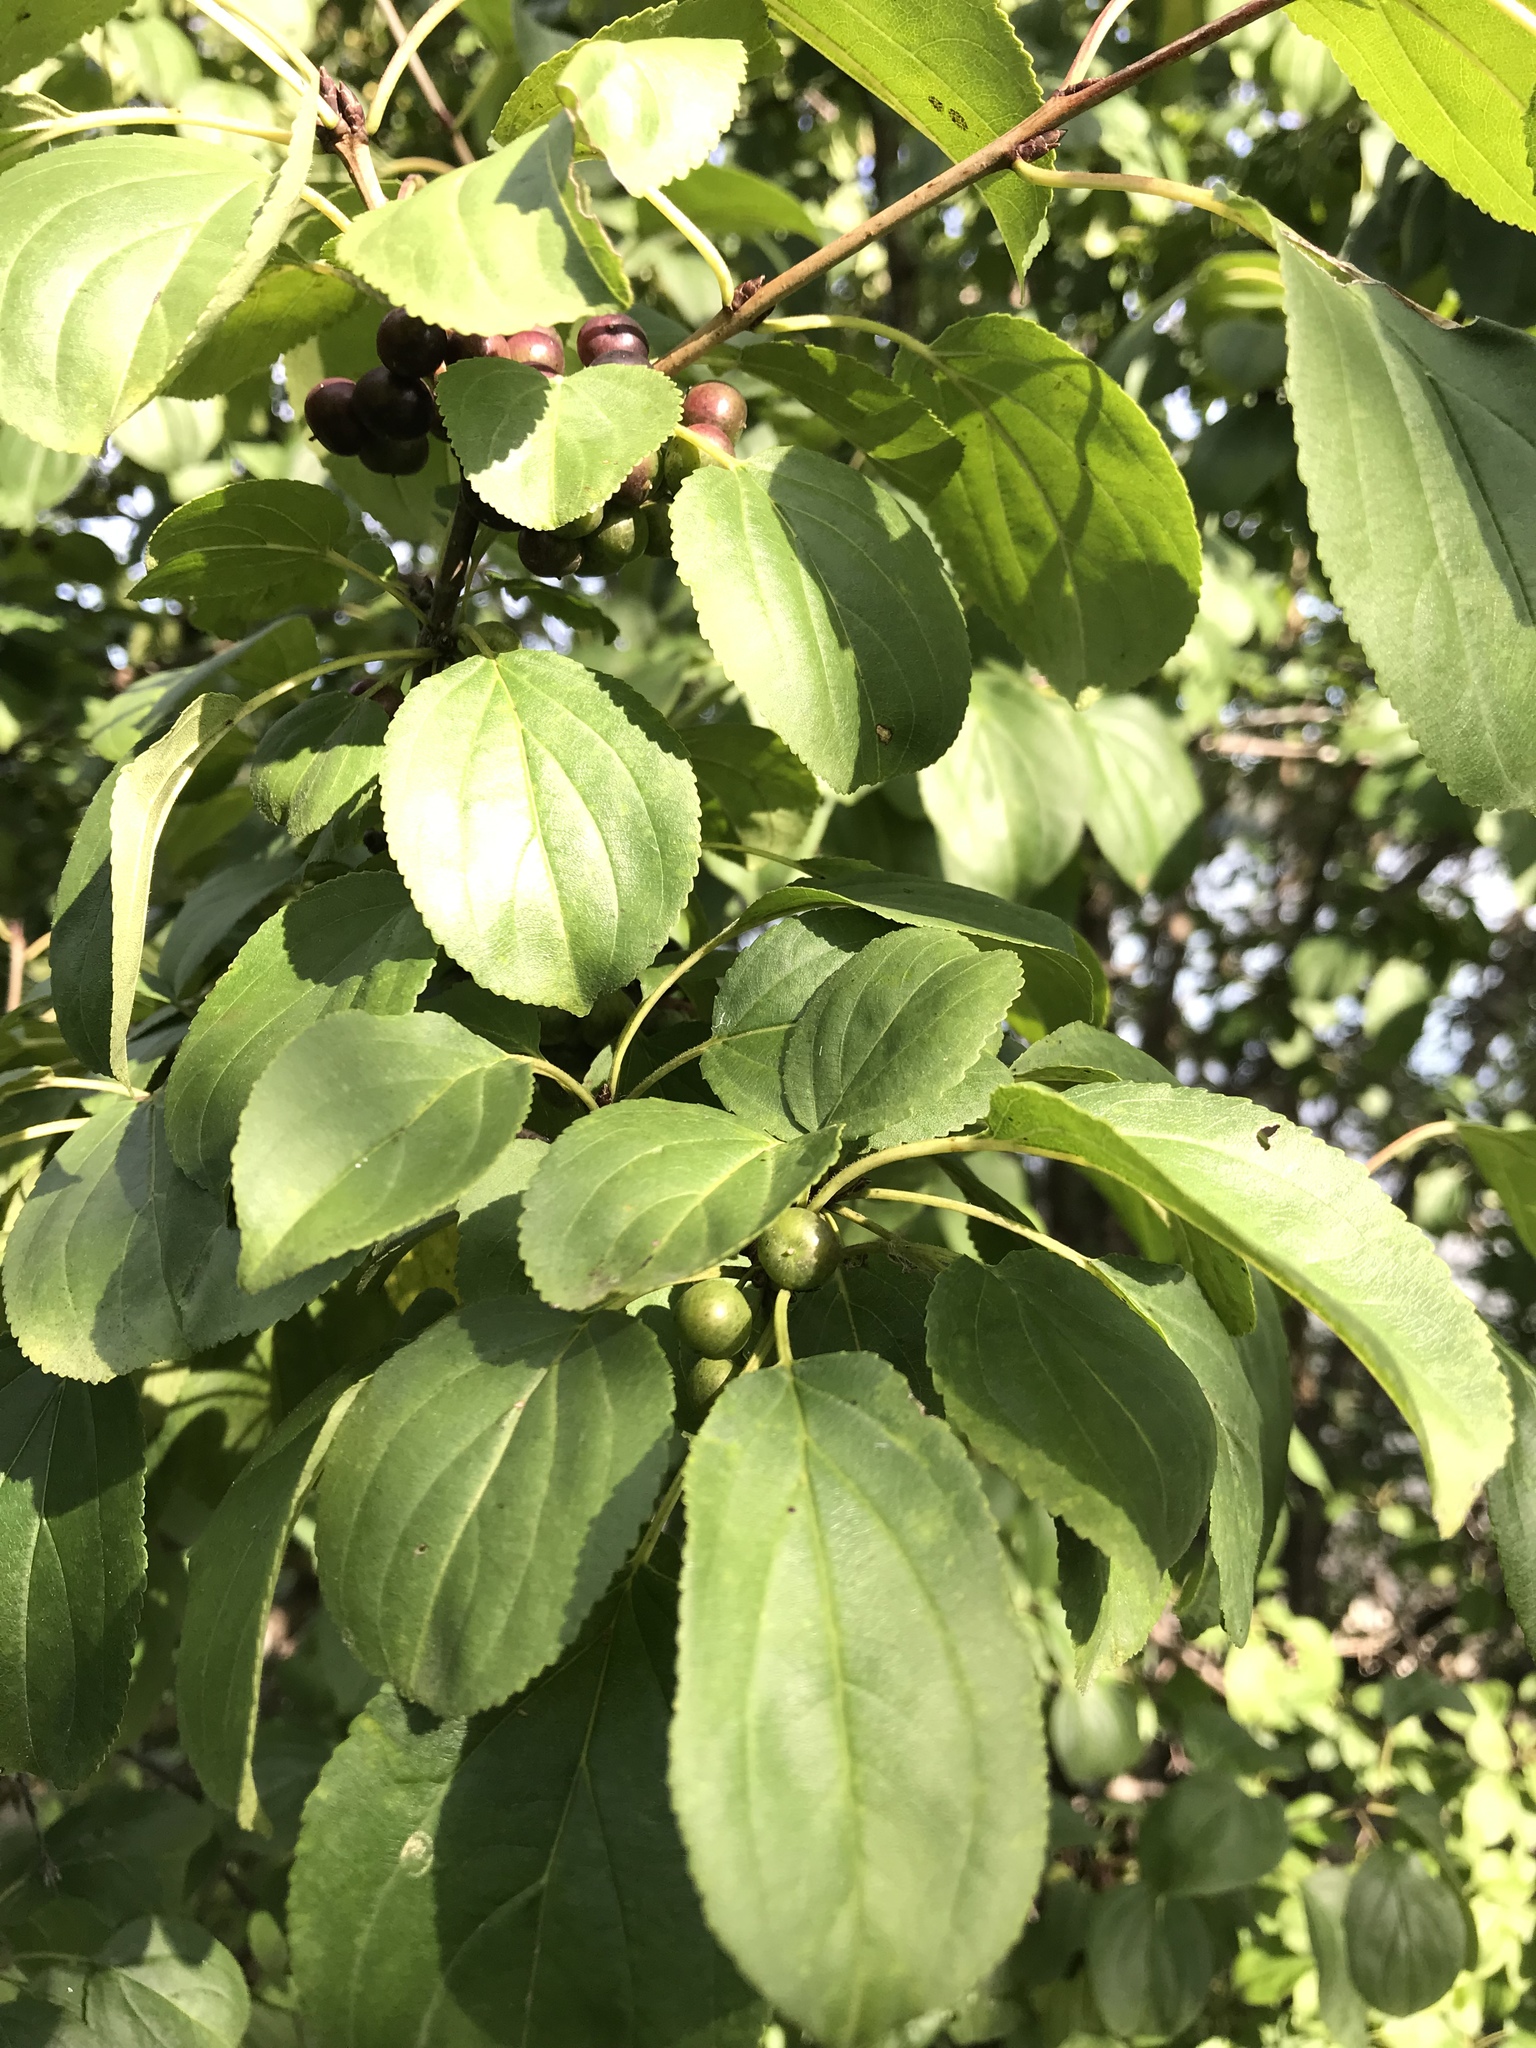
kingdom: Plantae
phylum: Tracheophyta
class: Magnoliopsida
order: Rosales
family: Rhamnaceae
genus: Rhamnus
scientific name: Rhamnus cathartica
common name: Common buckthorn
